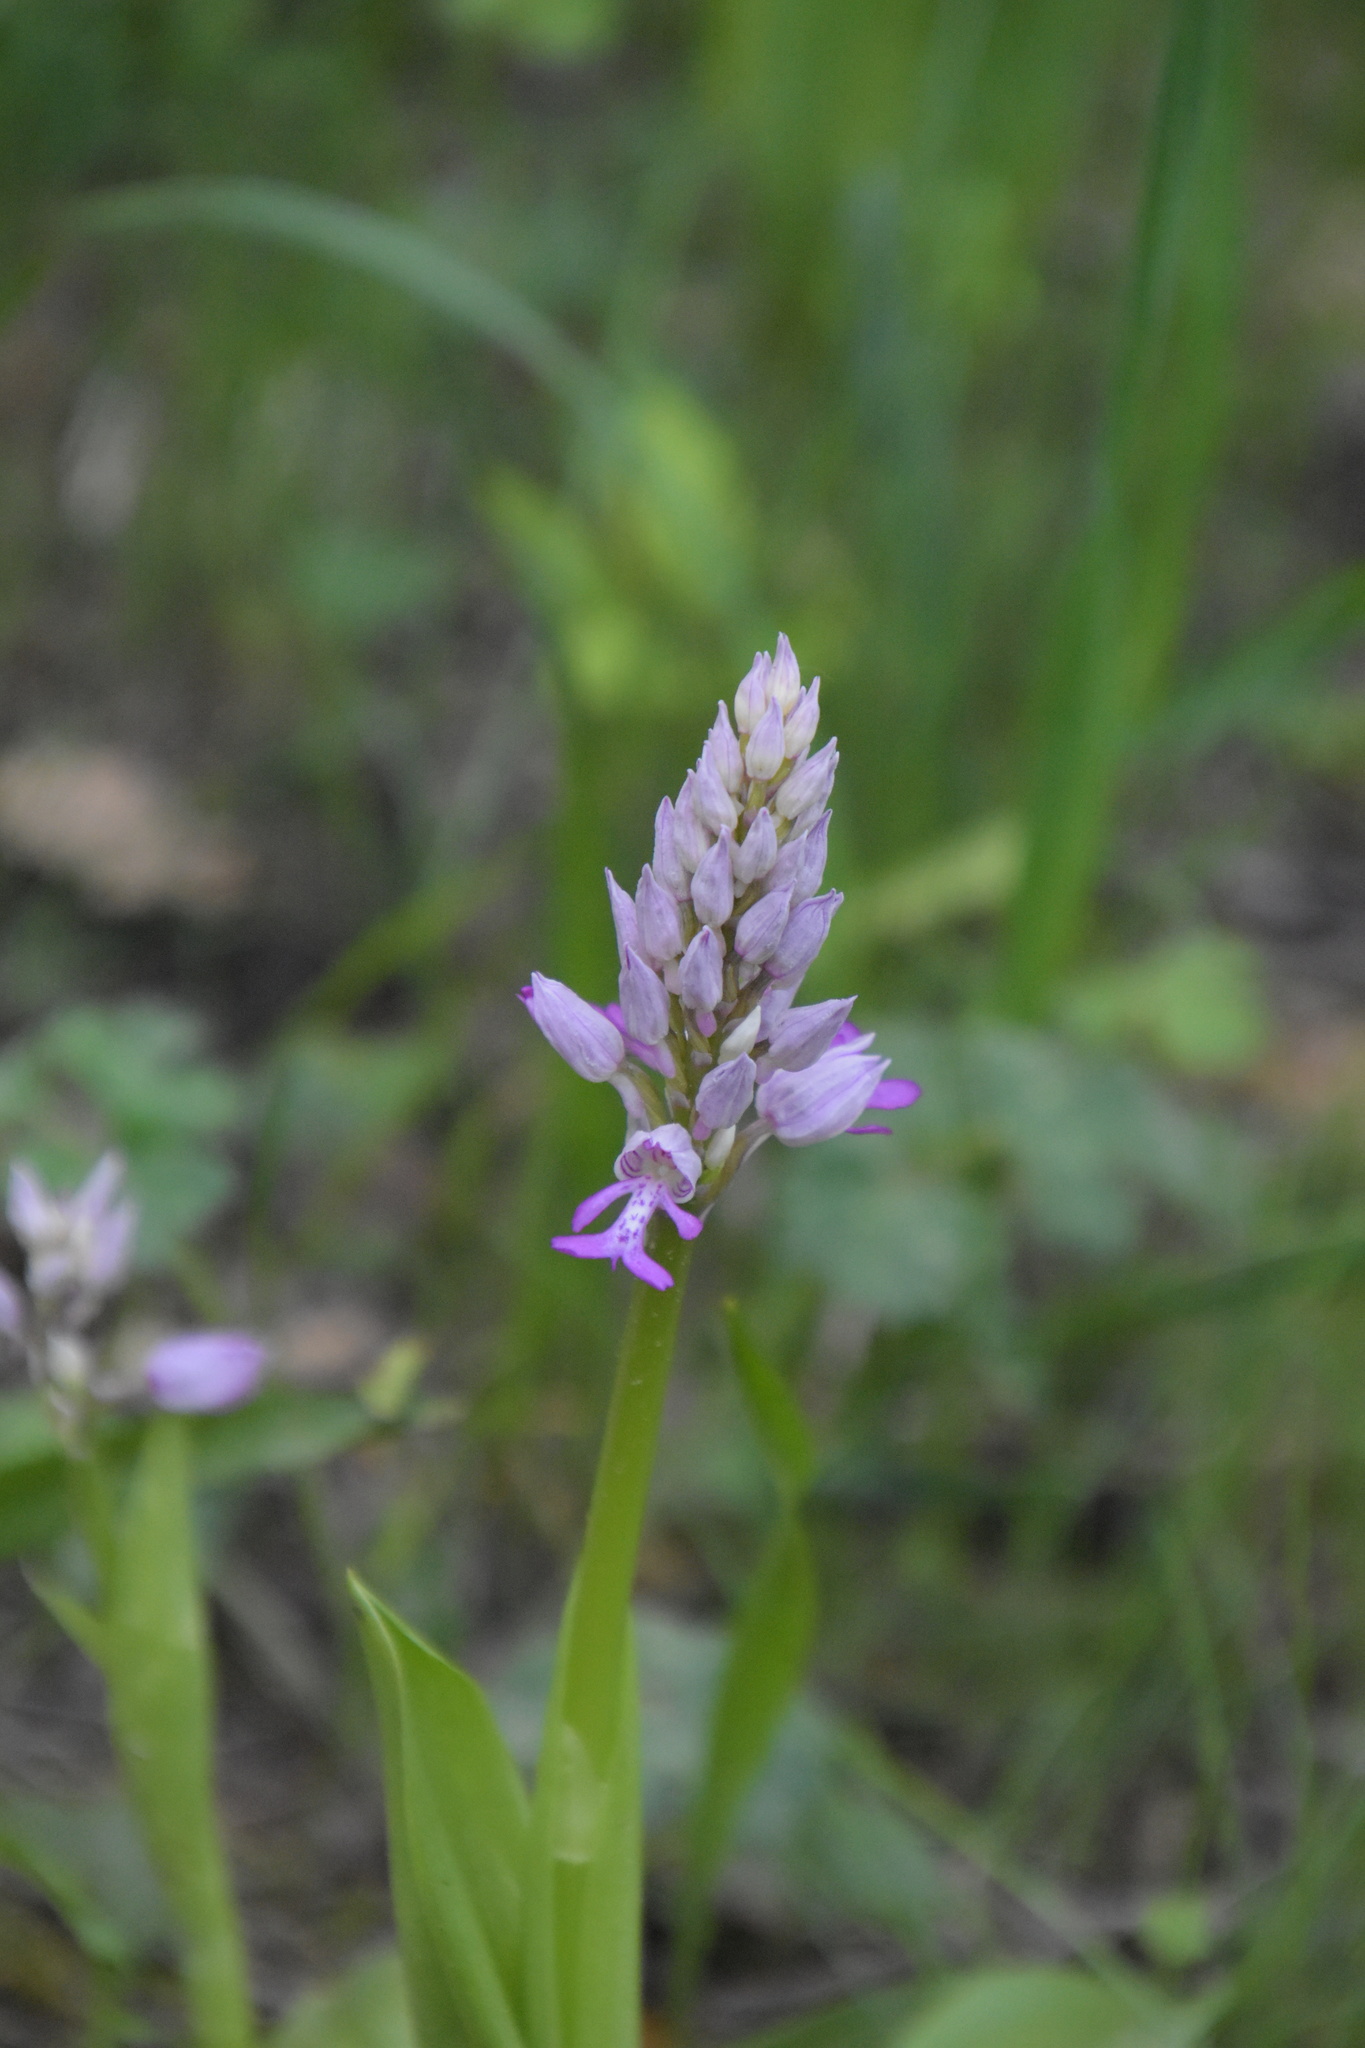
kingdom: Plantae
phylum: Tracheophyta
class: Liliopsida
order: Asparagales
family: Orchidaceae
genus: Orchis
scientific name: Orchis militaris
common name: Military orchid
